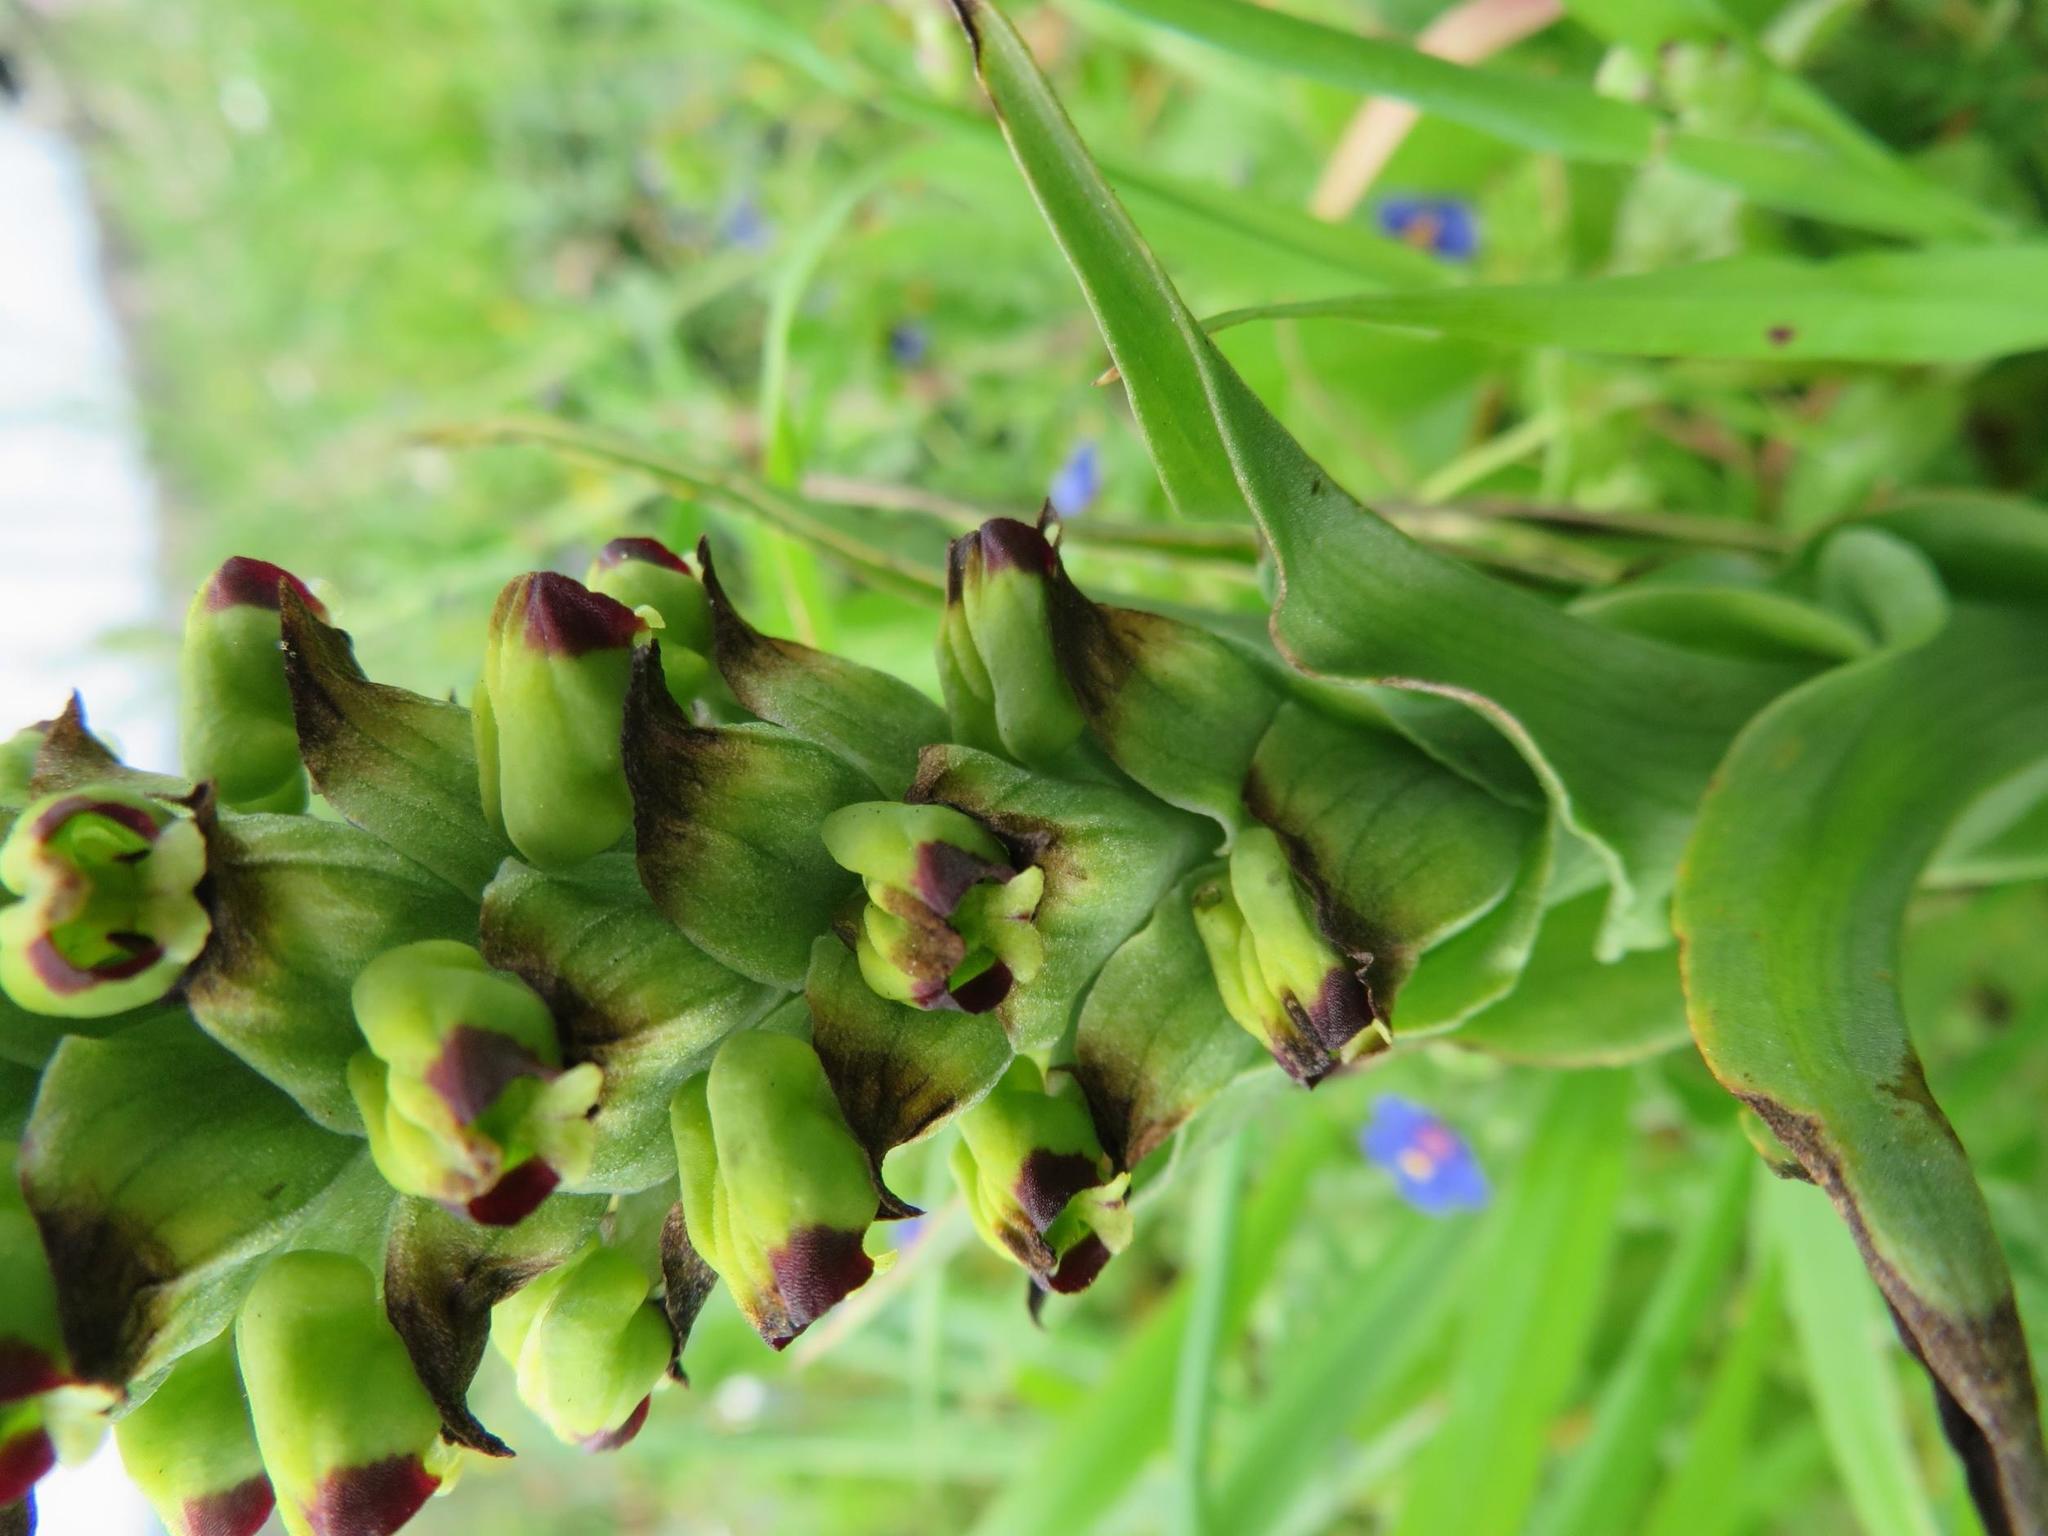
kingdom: Plantae
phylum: Tracheophyta
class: Liliopsida
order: Asparagales
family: Orchidaceae
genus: Corycium
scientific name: Corycium orobanchoides
